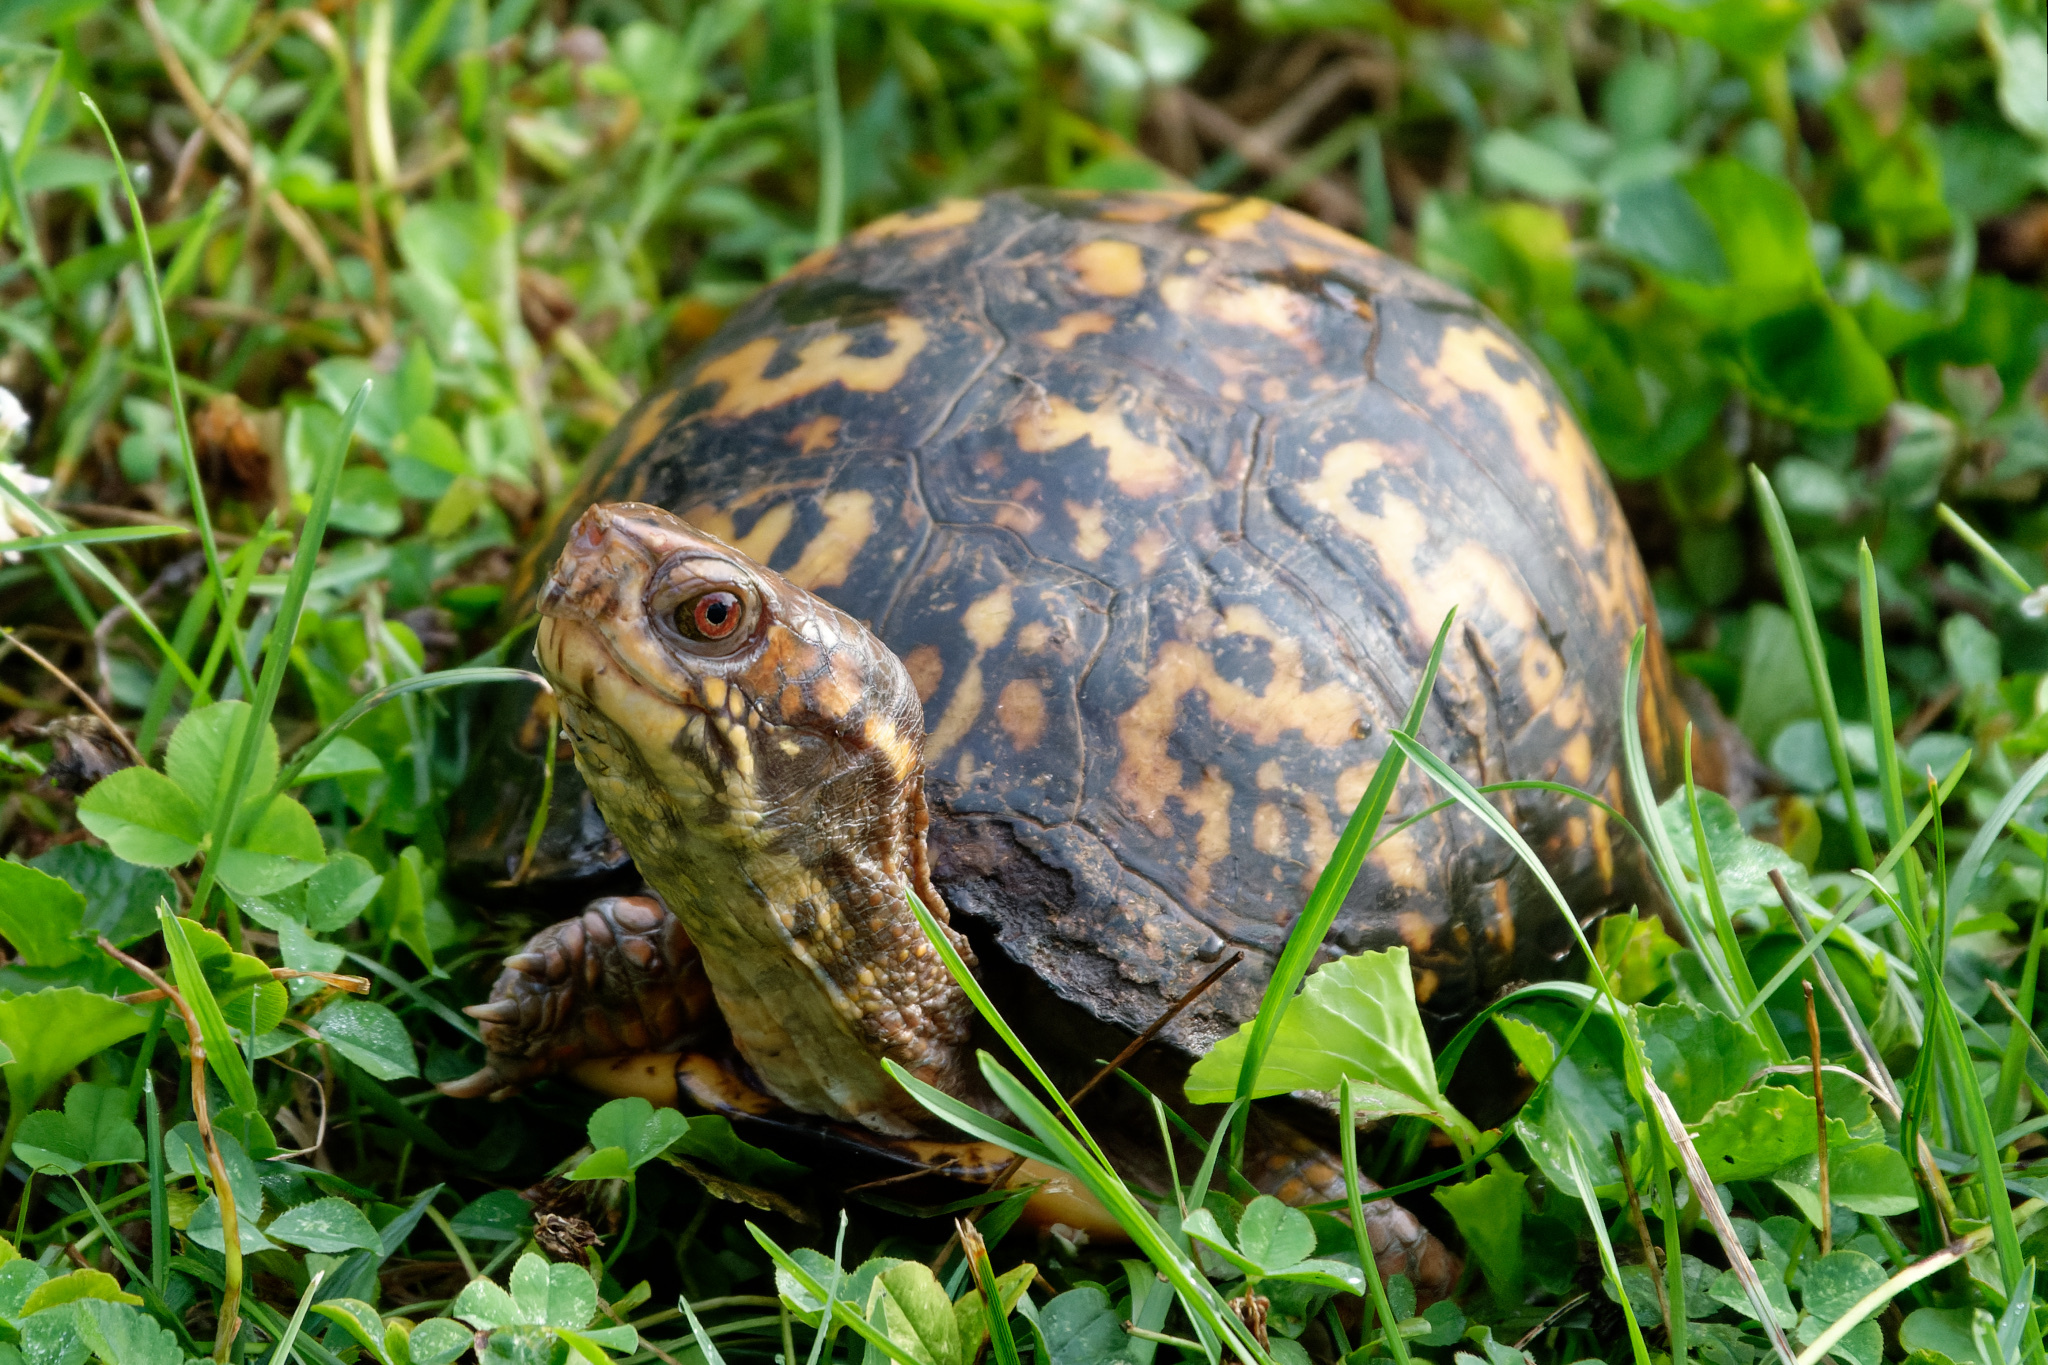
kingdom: Animalia
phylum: Chordata
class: Testudines
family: Emydidae
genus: Terrapene
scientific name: Terrapene carolina
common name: Common box turtle
